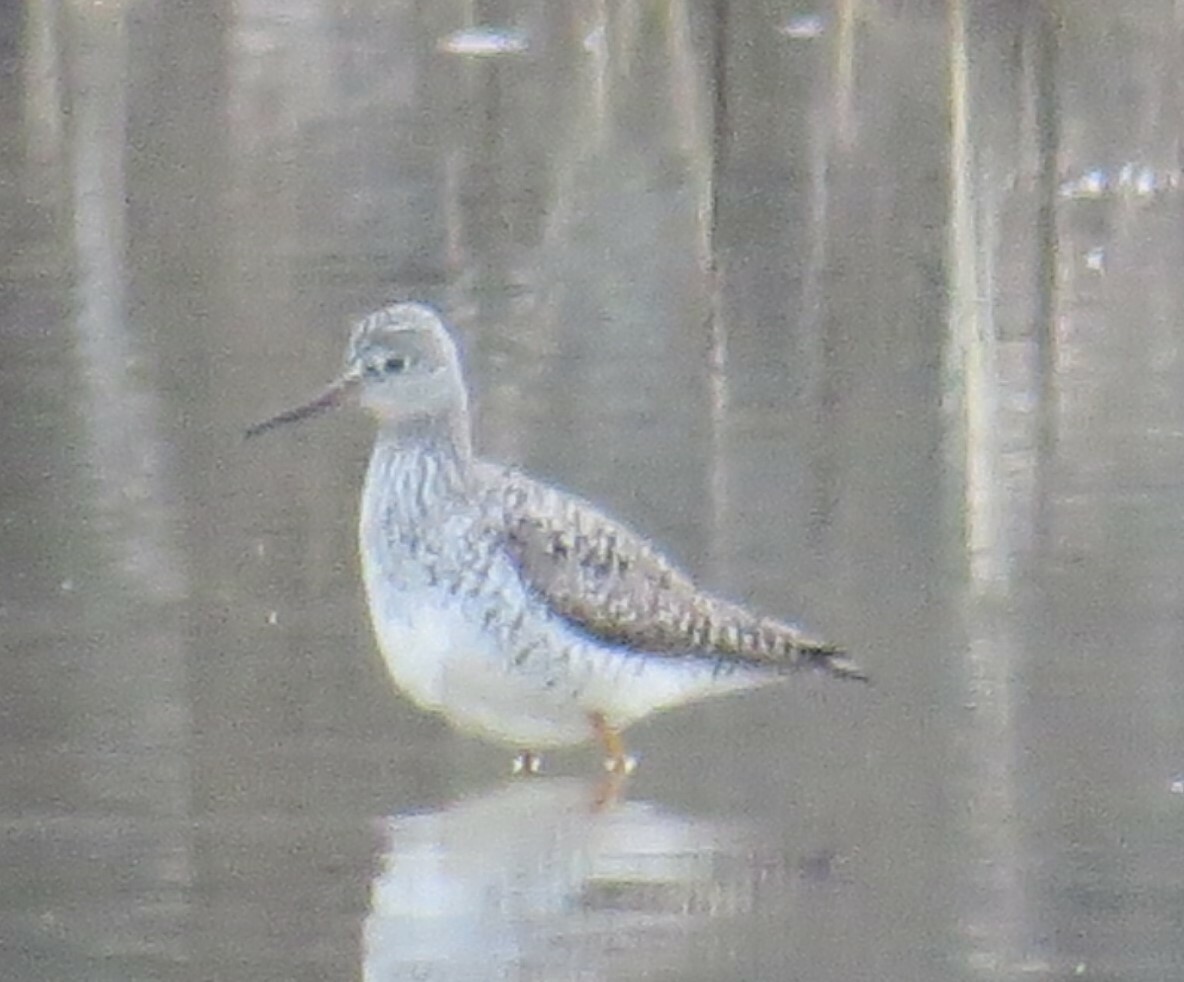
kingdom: Animalia
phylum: Chordata
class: Aves
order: Charadriiformes
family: Scolopacidae
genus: Tringa
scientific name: Tringa melanoleuca
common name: Greater yellowlegs
